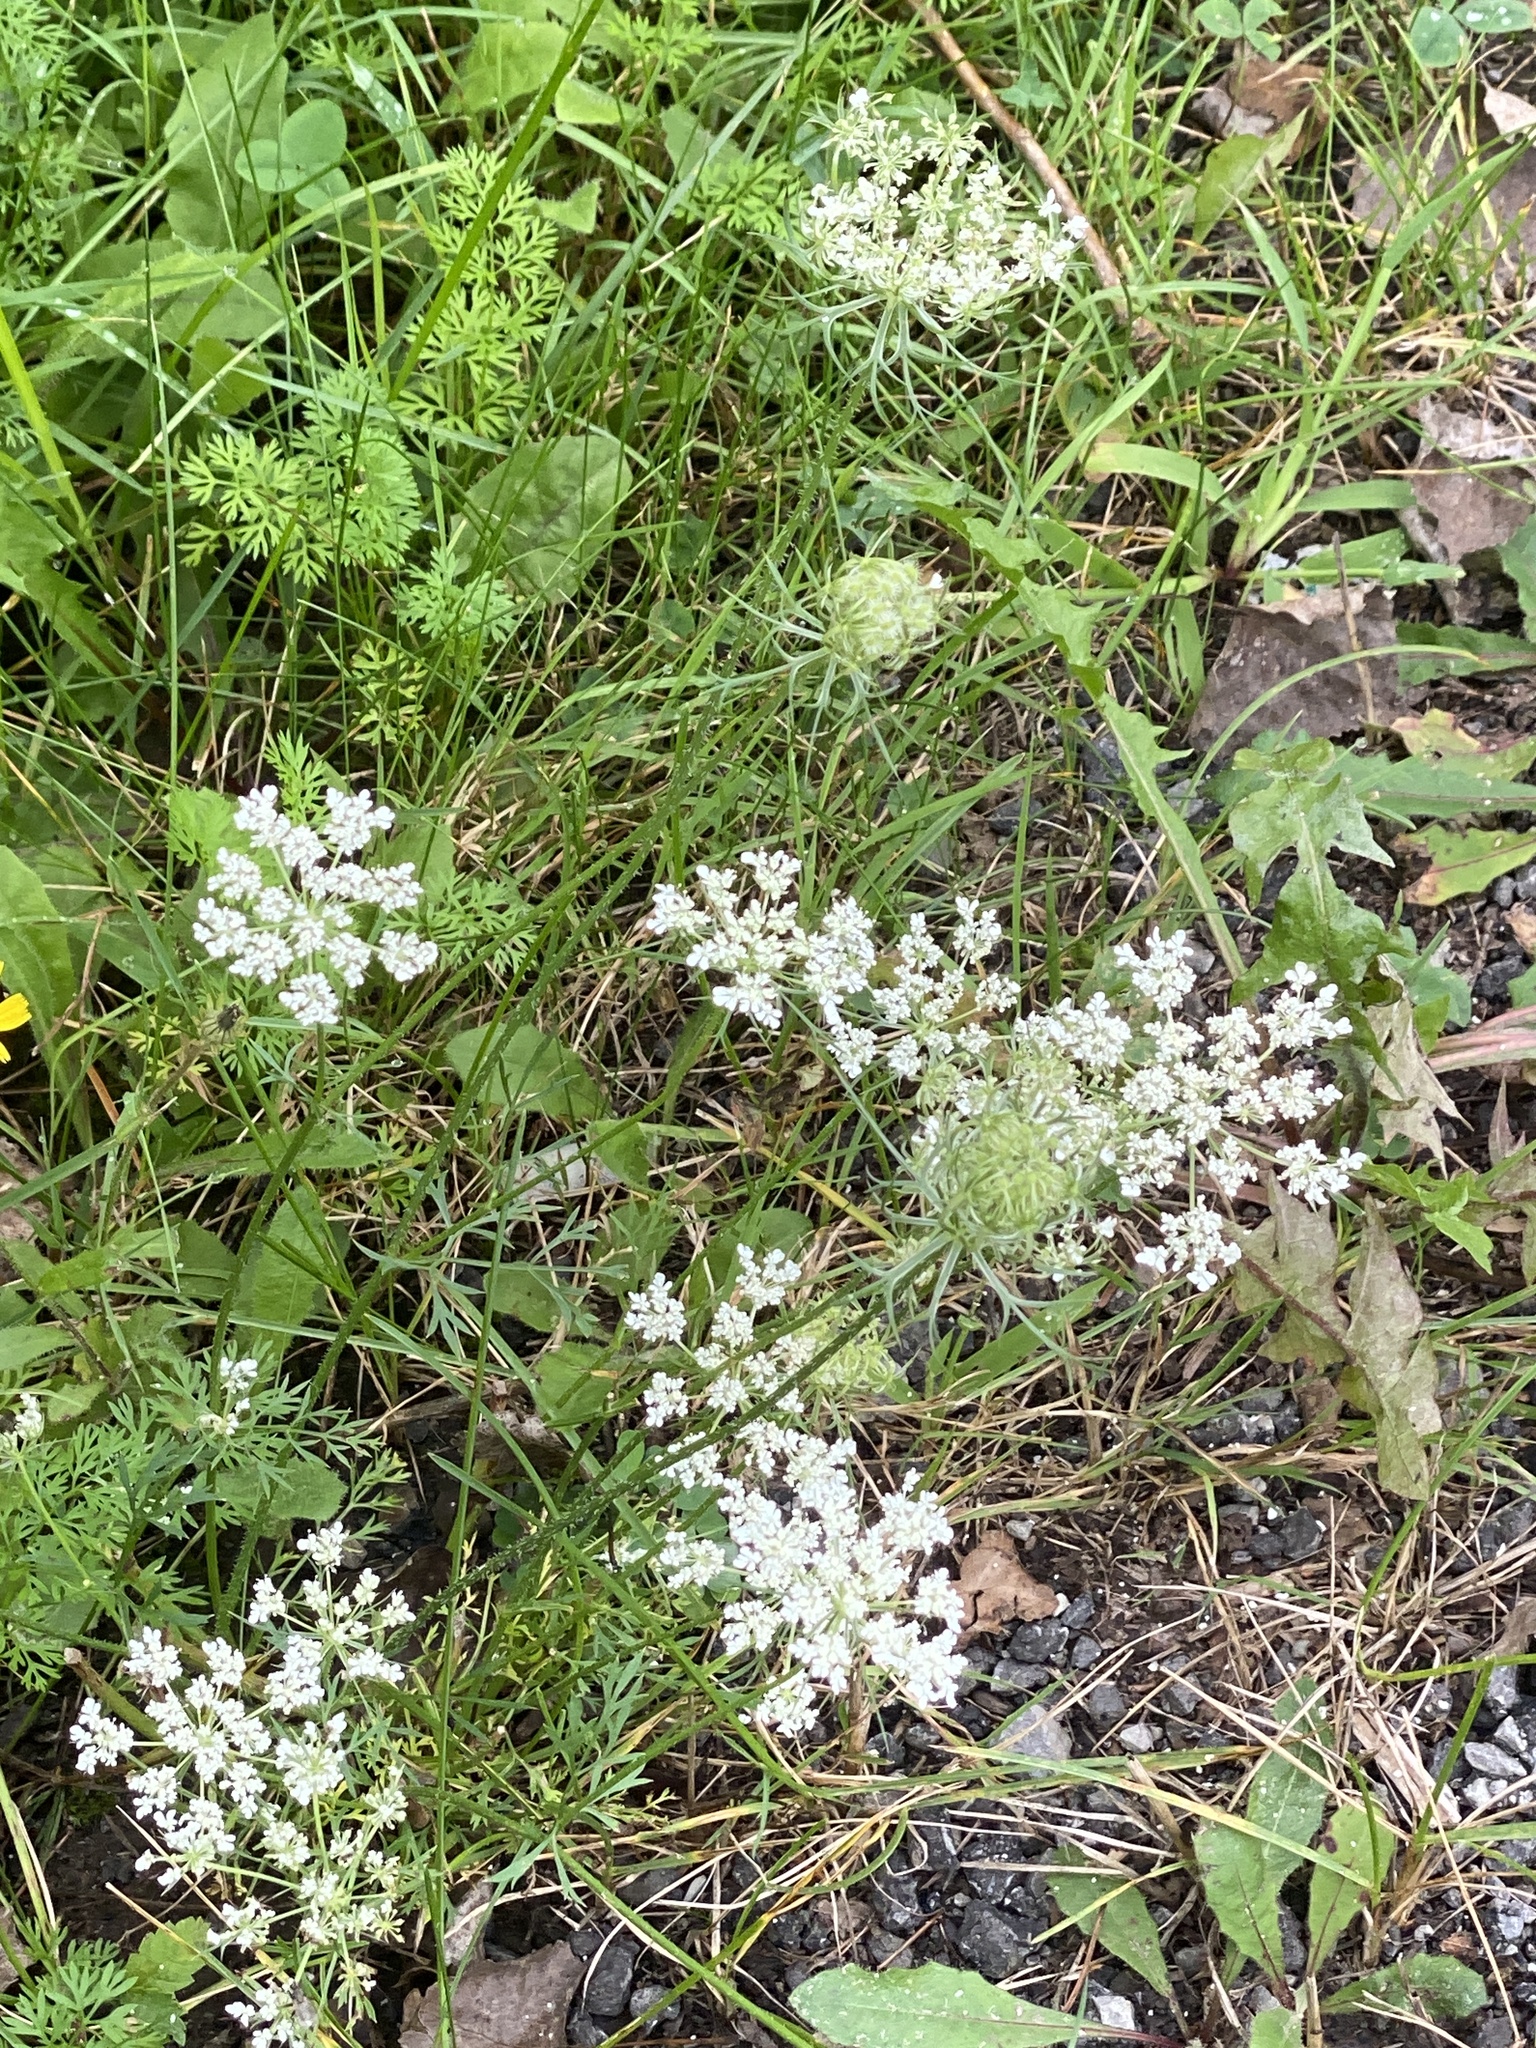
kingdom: Plantae
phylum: Tracheophyta
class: Magnoliopsida
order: Apiales
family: Apiaceae
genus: Daucus
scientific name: Daucus carota
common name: Wild carrot
